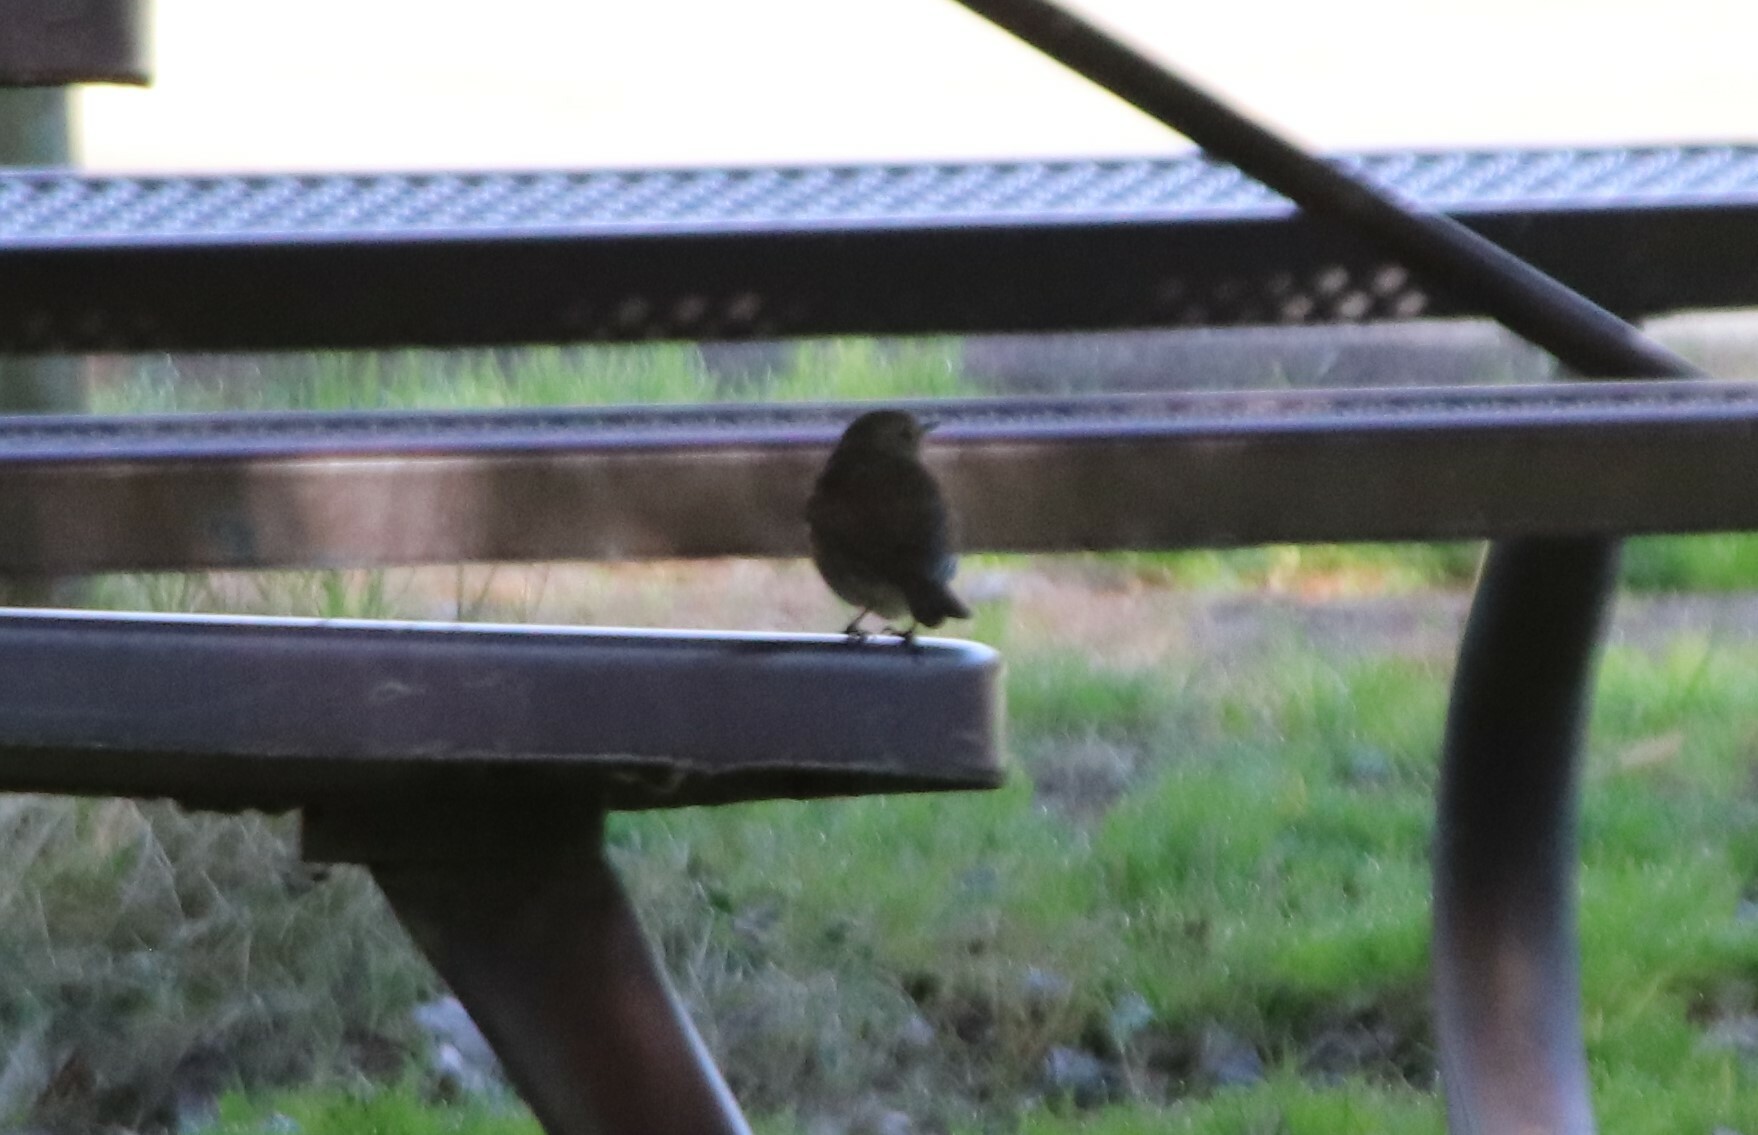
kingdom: Animalia
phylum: Chordata
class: Aves
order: Passeriformes
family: Turdidae
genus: Catharus
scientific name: Catharus guttatus
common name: Hermit thrush
